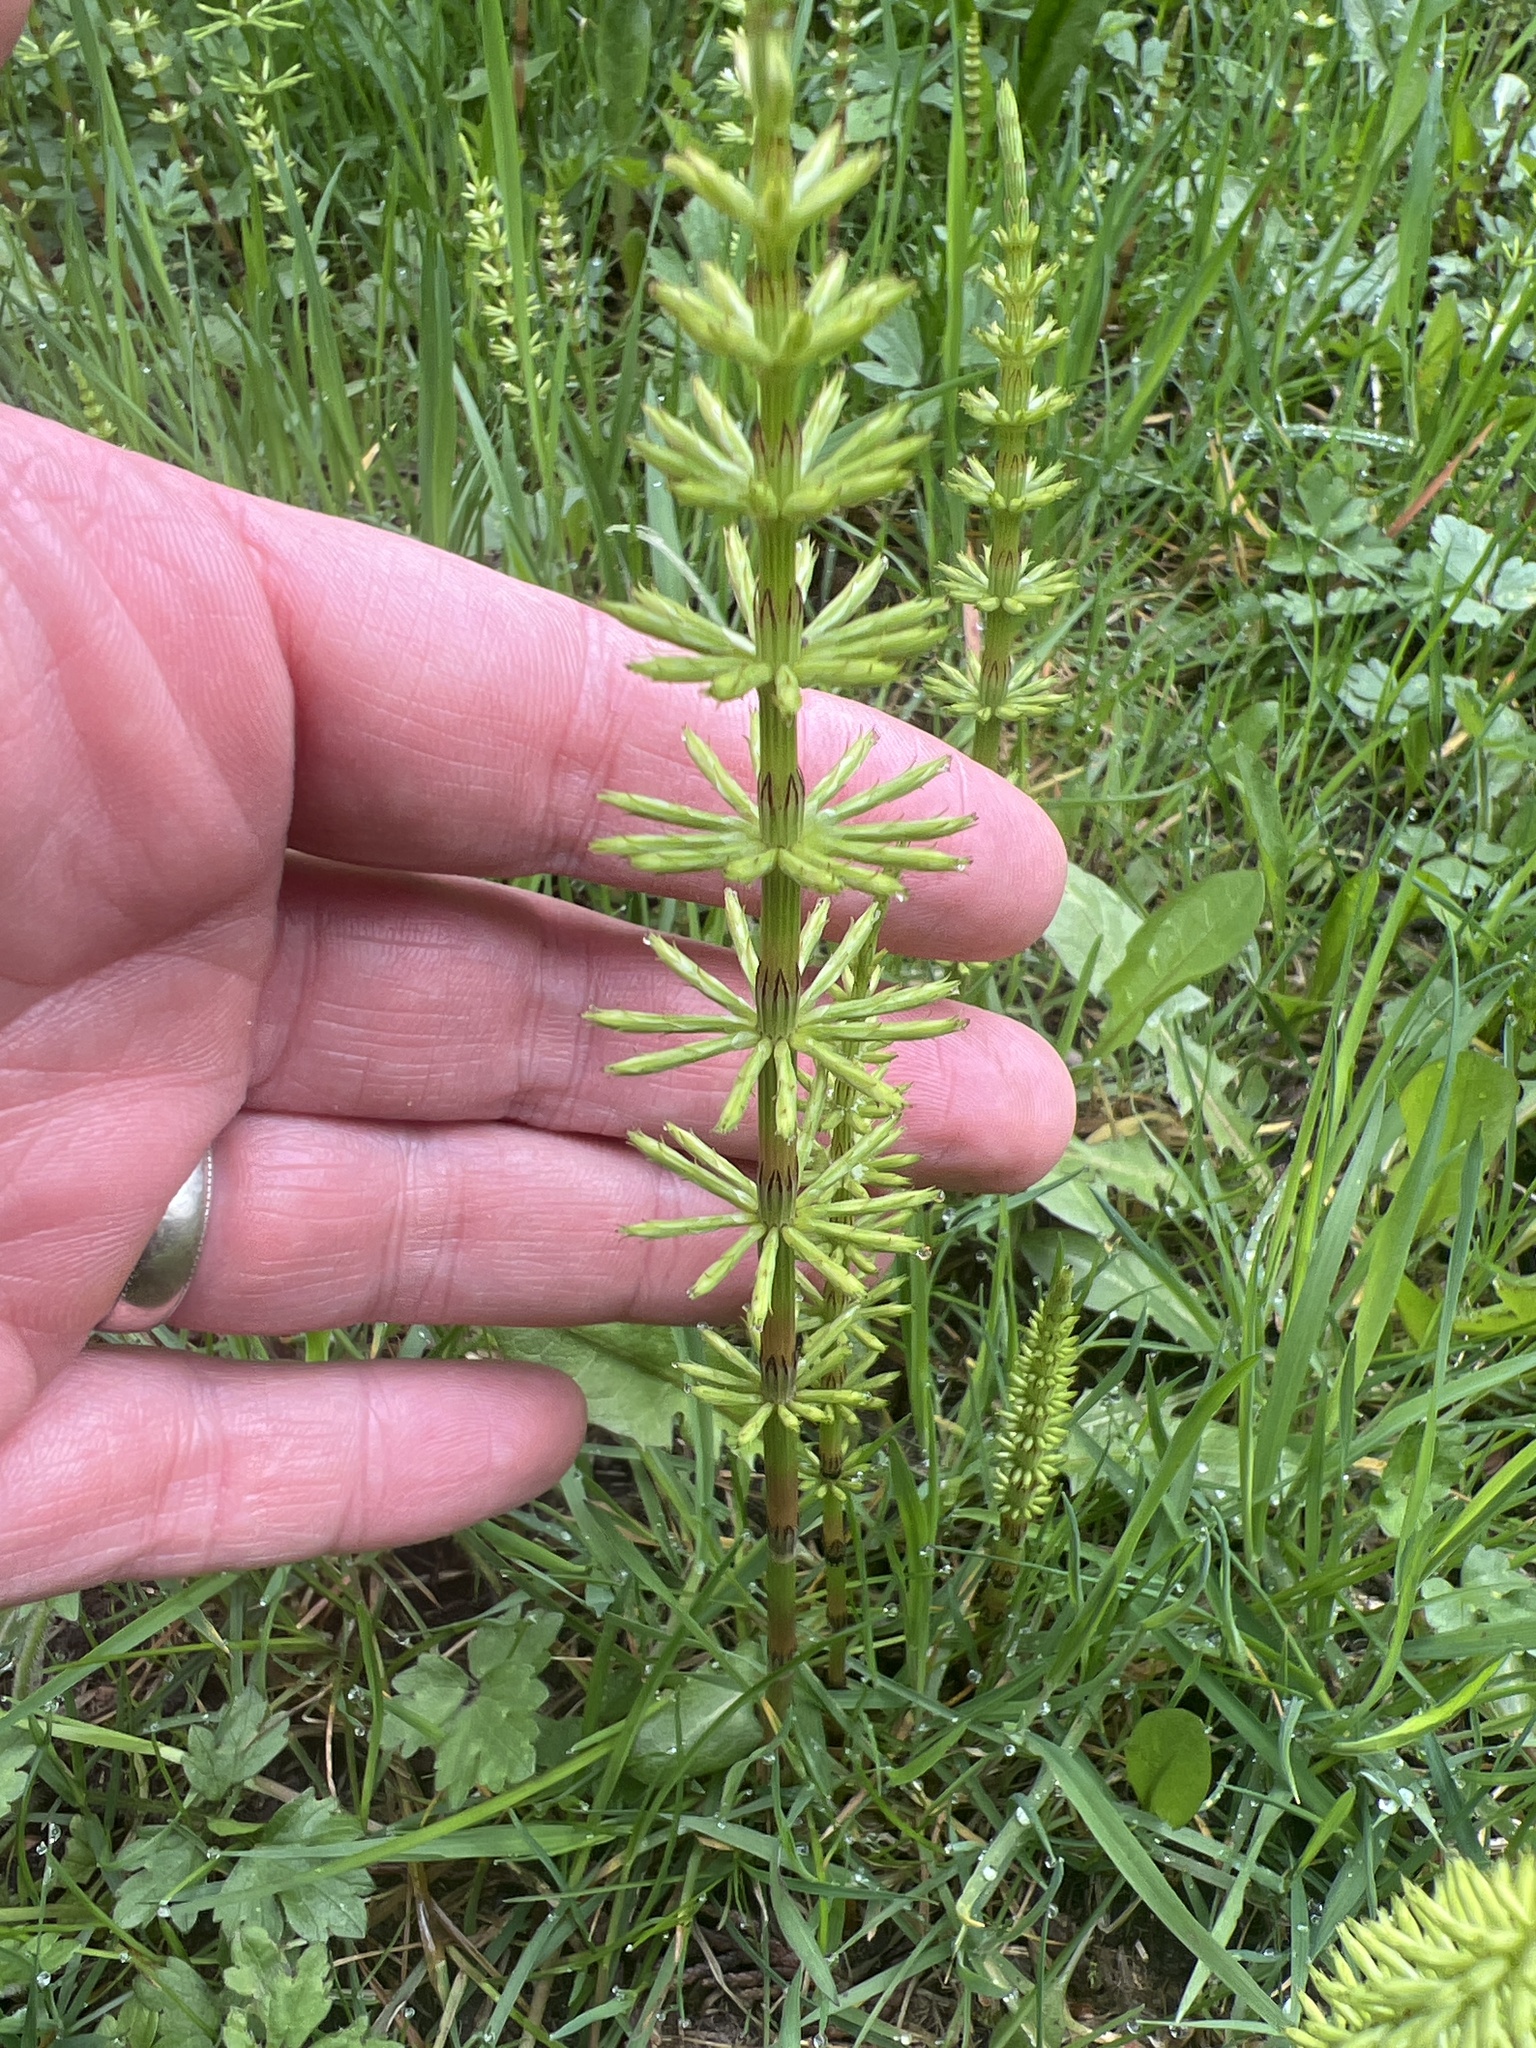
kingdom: Plantae
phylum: Tracheophyta
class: Polypodiopsida
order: Equisetales
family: Equisetaceae
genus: Equisetum
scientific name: Equisetum arvense
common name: Field horsetail
